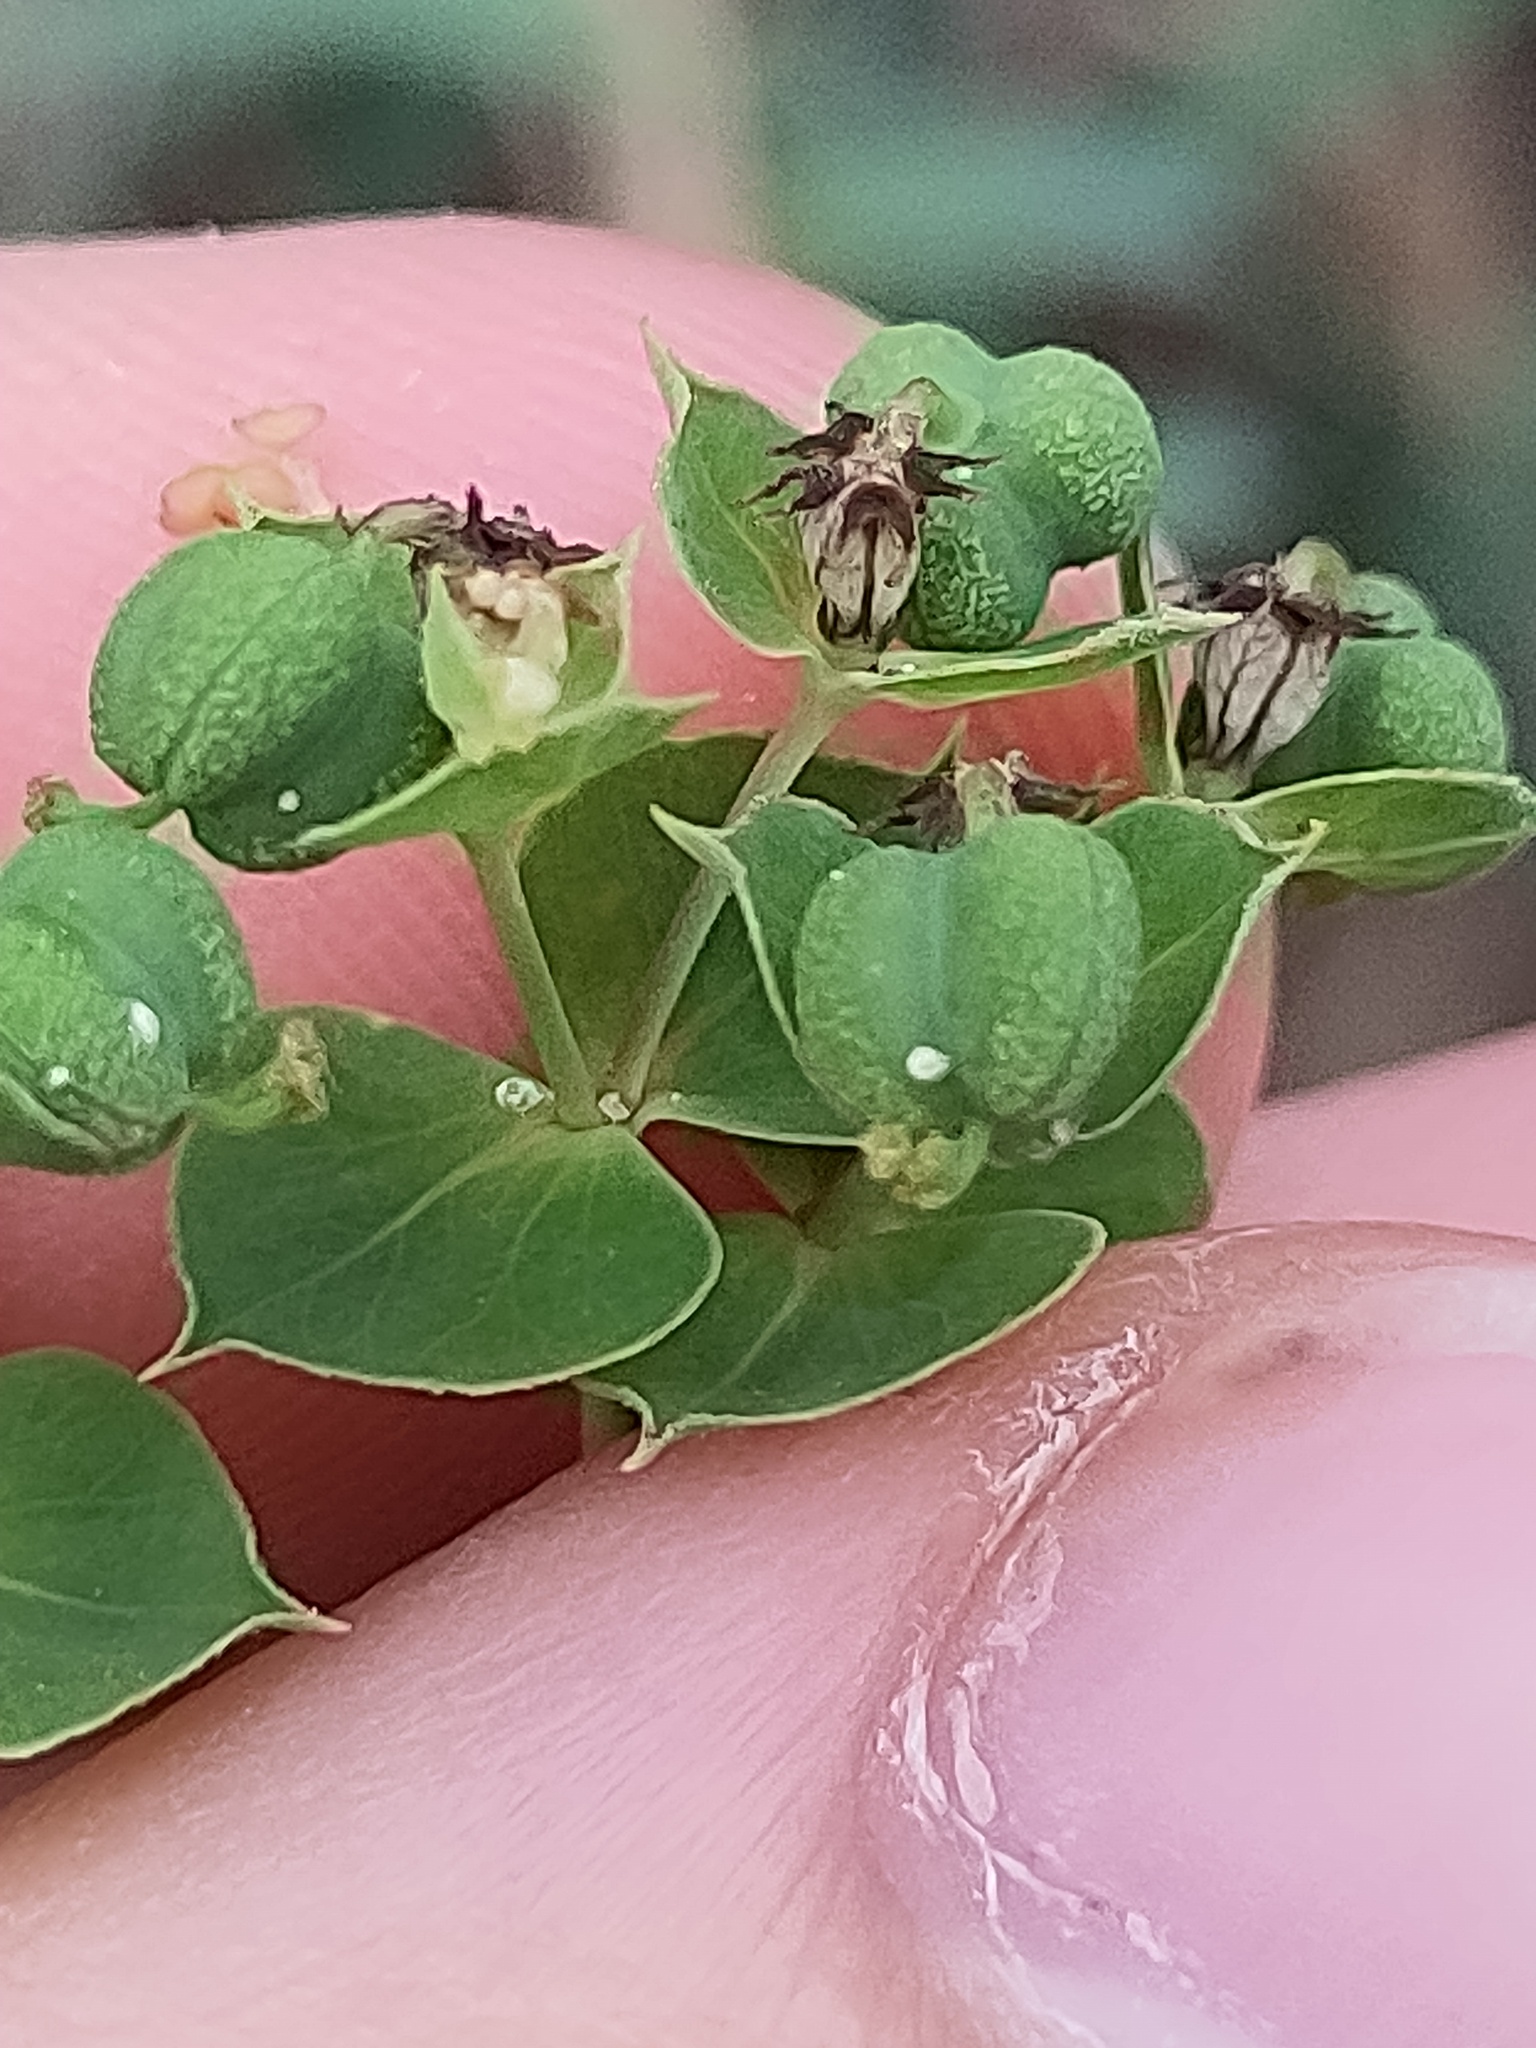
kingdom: Plantae
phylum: Tracheophyta
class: Magnoliopsida
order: Malpighiales
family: Euphorbiaceae
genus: Euphorbia
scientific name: Euphorbia virgata
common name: Leafy spurge
